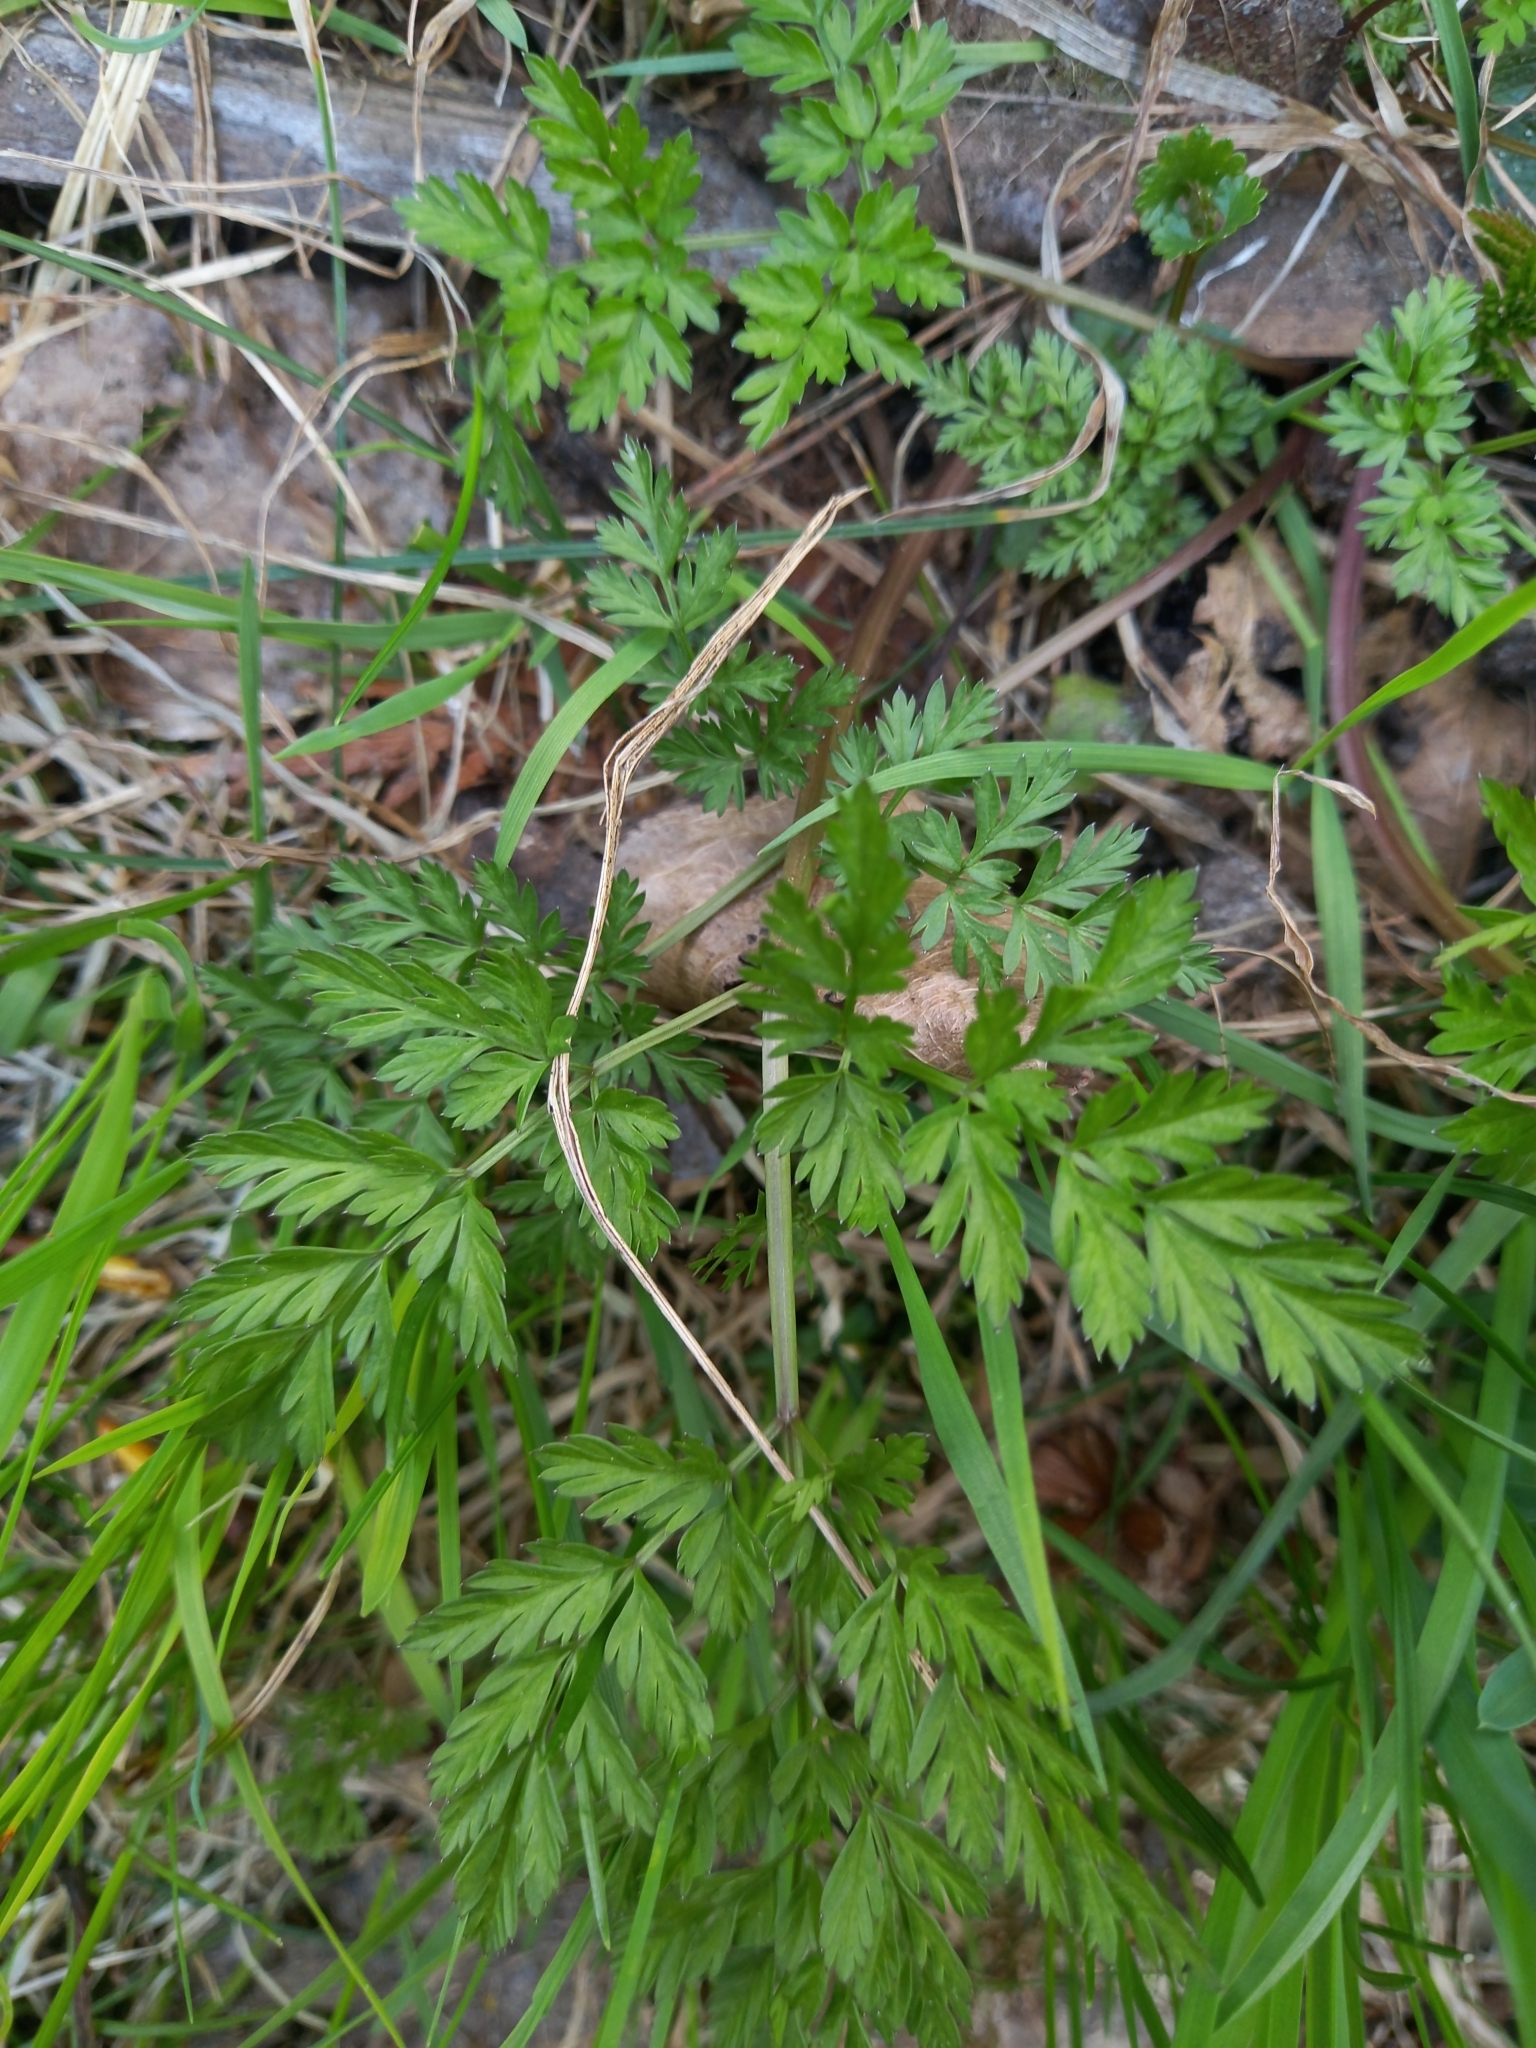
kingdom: Plantae
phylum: Tracheophyta
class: Magnoliopsida
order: Apiales
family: Apiaceae
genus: Anthriscus
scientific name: Anthriscus sylvestris
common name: Cow parsley
